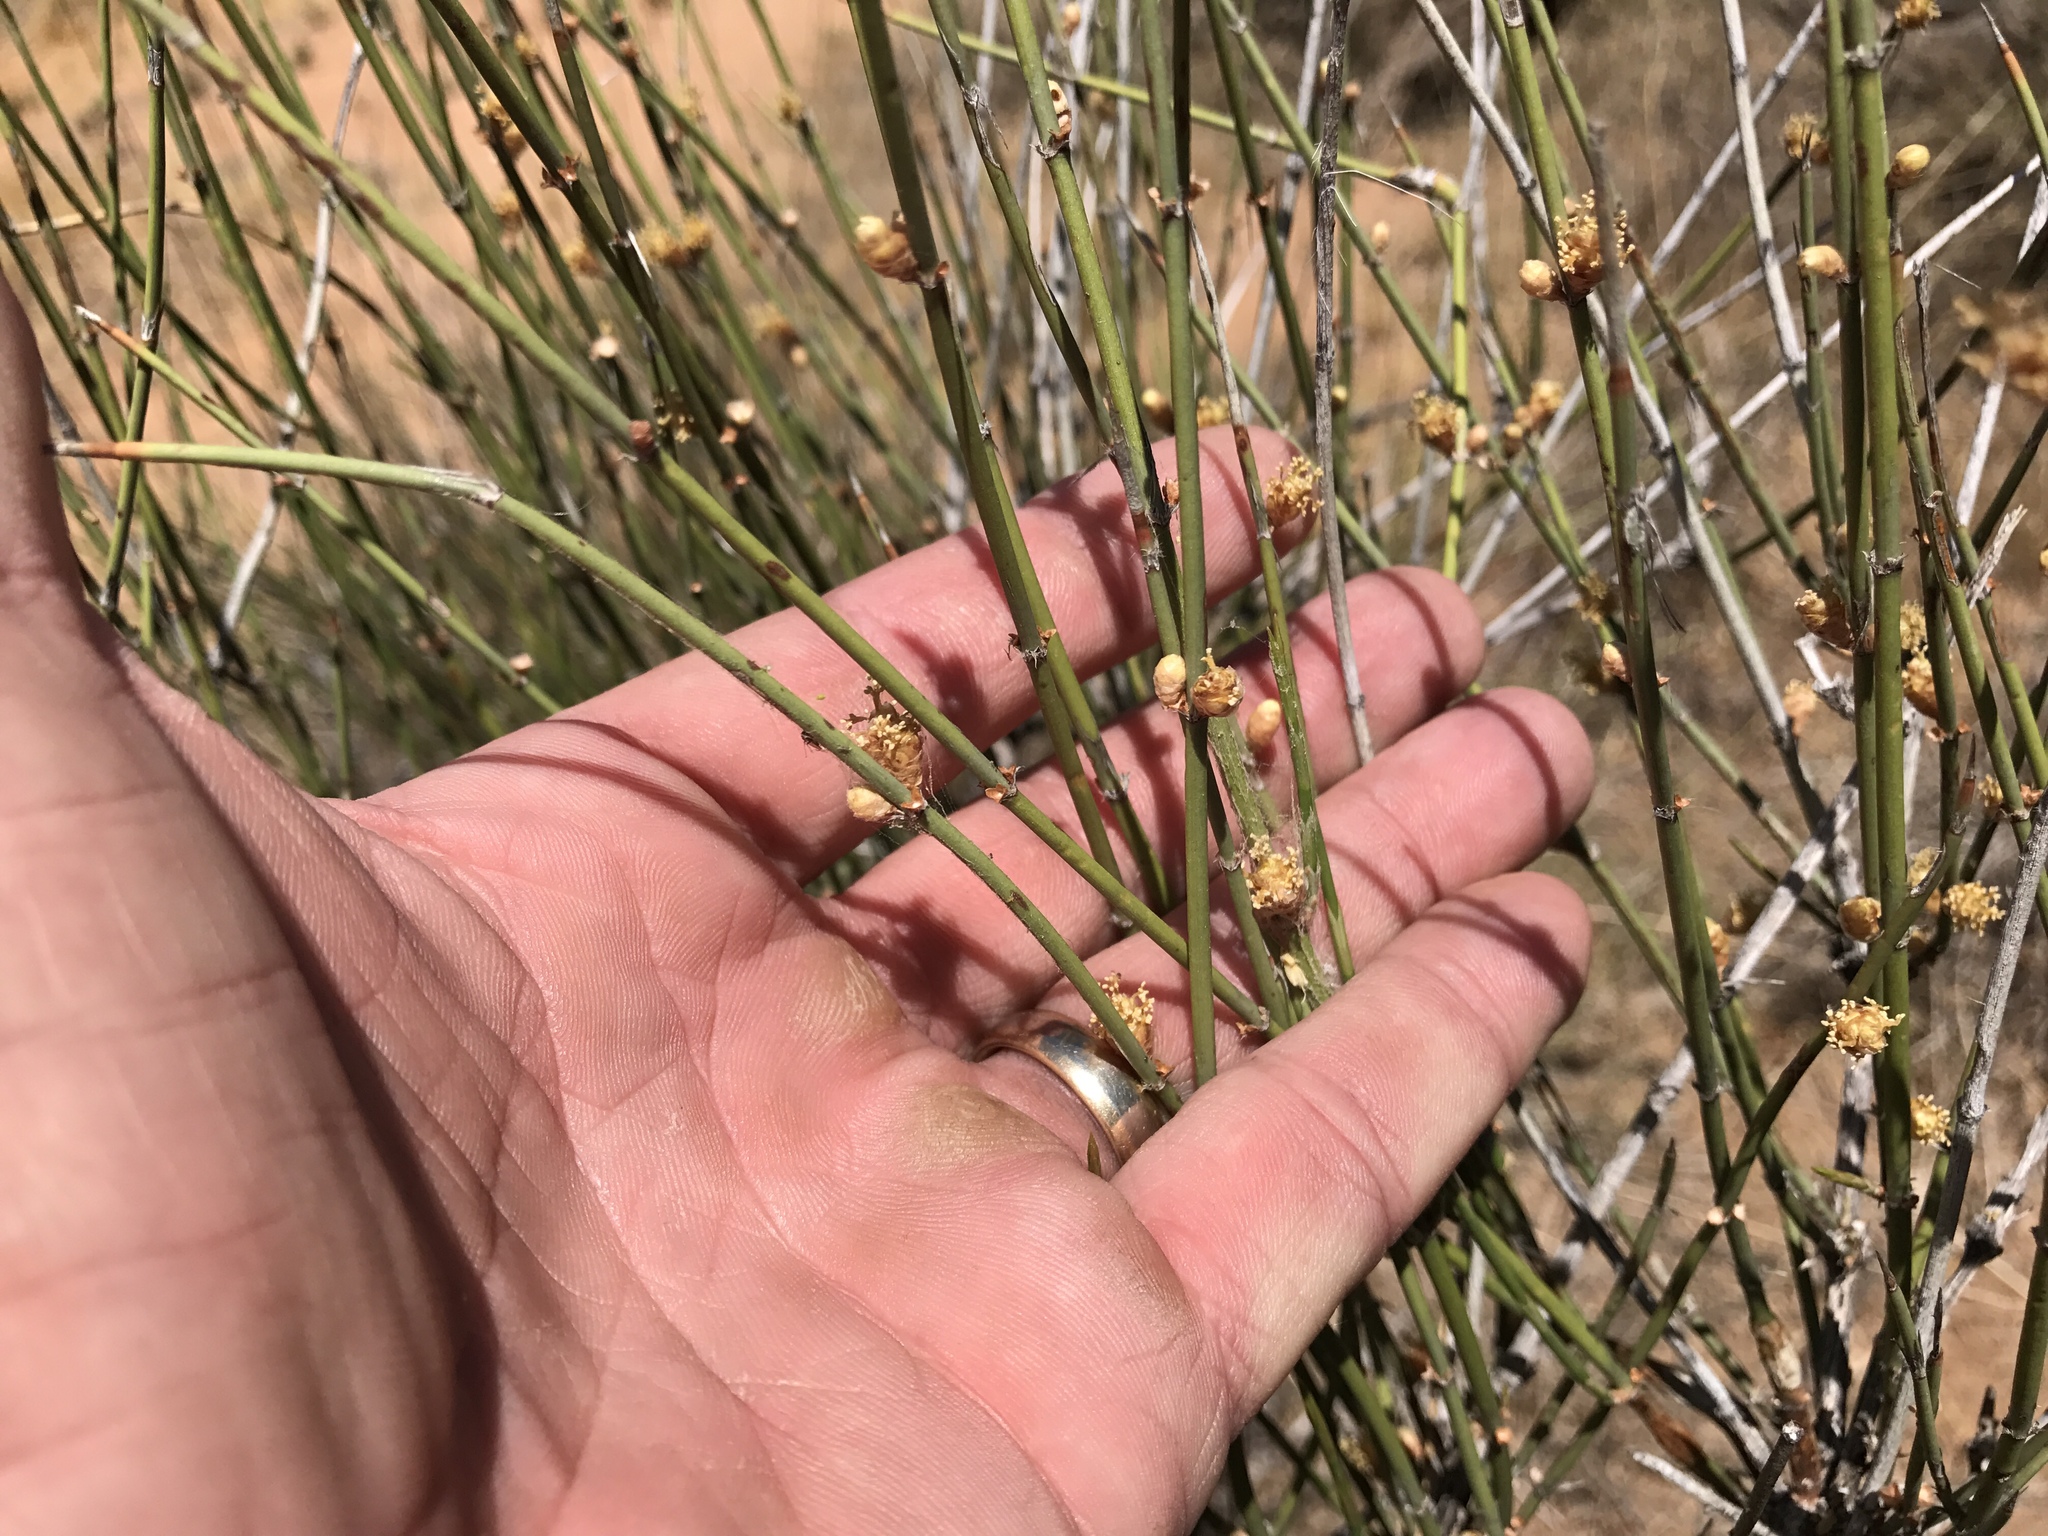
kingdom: Plantae
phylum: Tracheophyta
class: Gnetopsida
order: Ephedrales
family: Ephedraceae
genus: Ephedra
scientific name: Ephedra trifurca
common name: Mexican-tea
